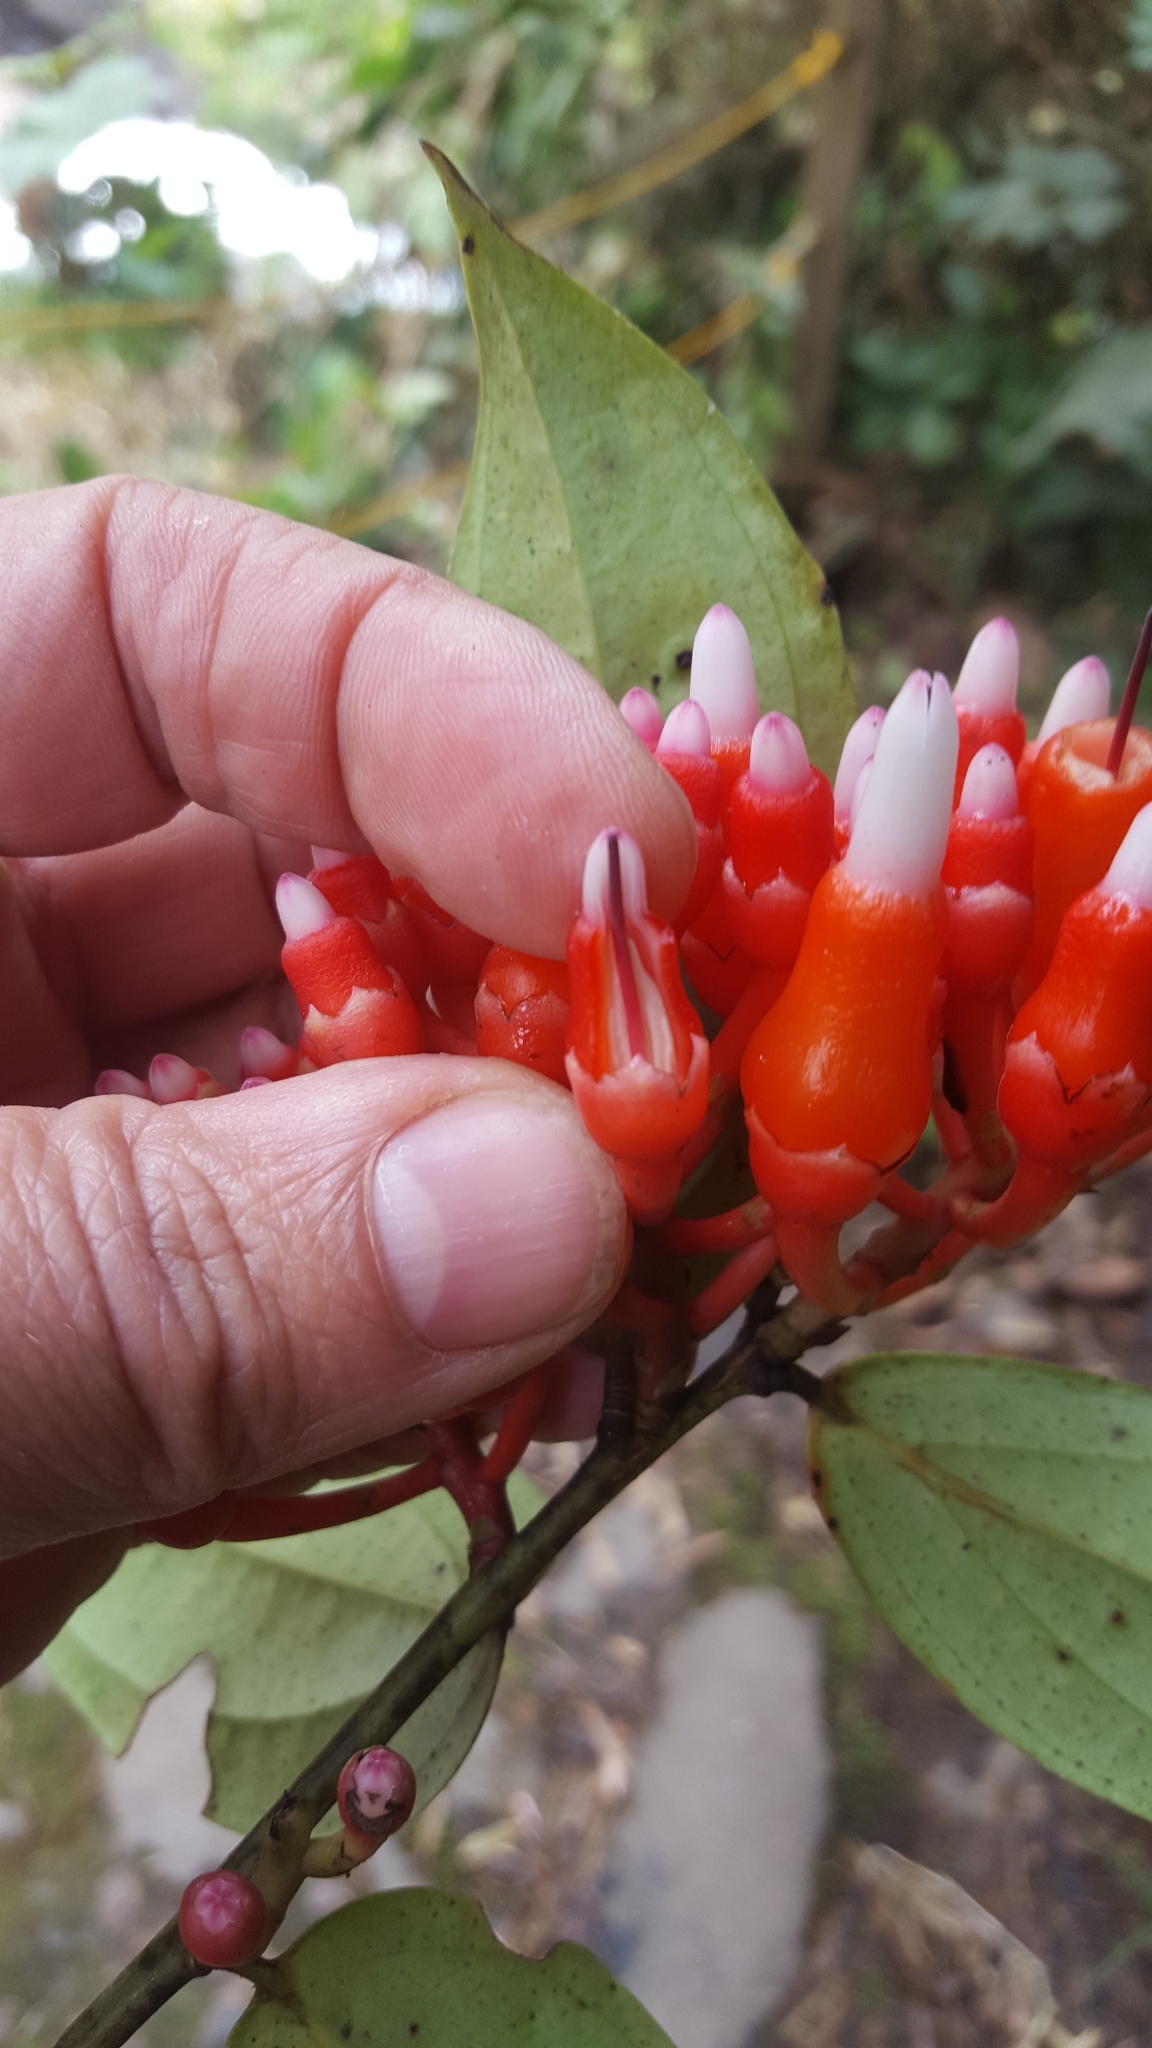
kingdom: Plantae
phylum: Tracheophyta
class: Magnoliopsida
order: Ericales
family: Ericaceae
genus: Psammisia
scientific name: Psammisia ulbrichiana
